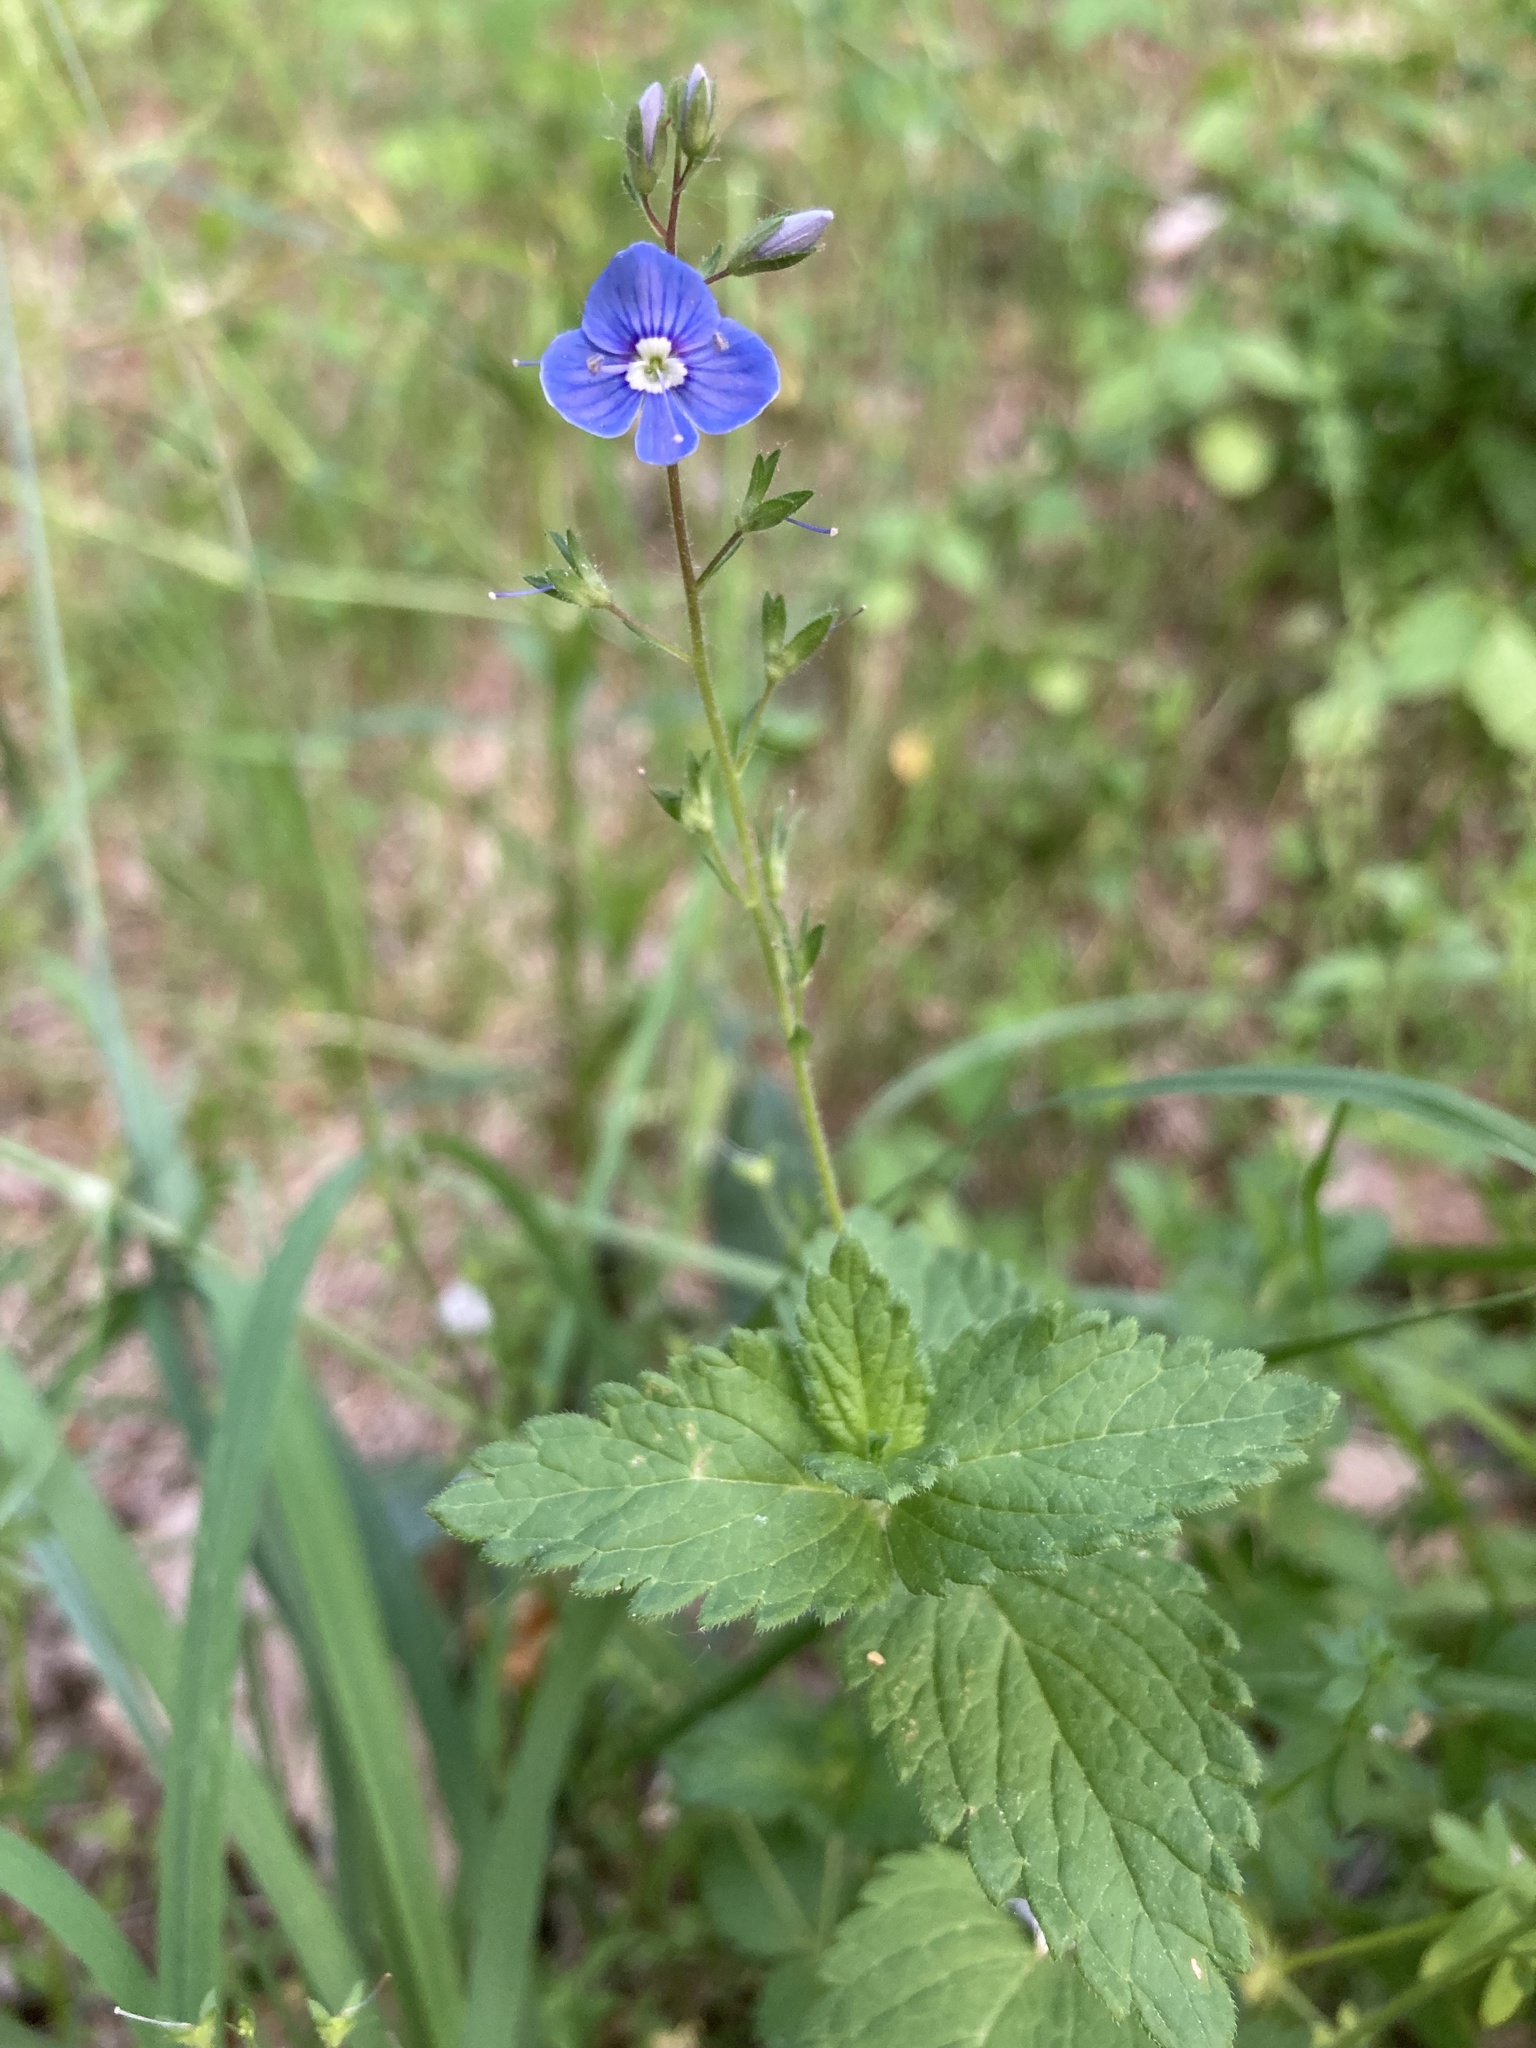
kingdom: Plantae
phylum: Tracheophyta
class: Magnoliopsida
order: Lamiales
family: Plantaginaceae
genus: Veronica
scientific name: Veronica chamaedrys
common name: Germander speedwell
